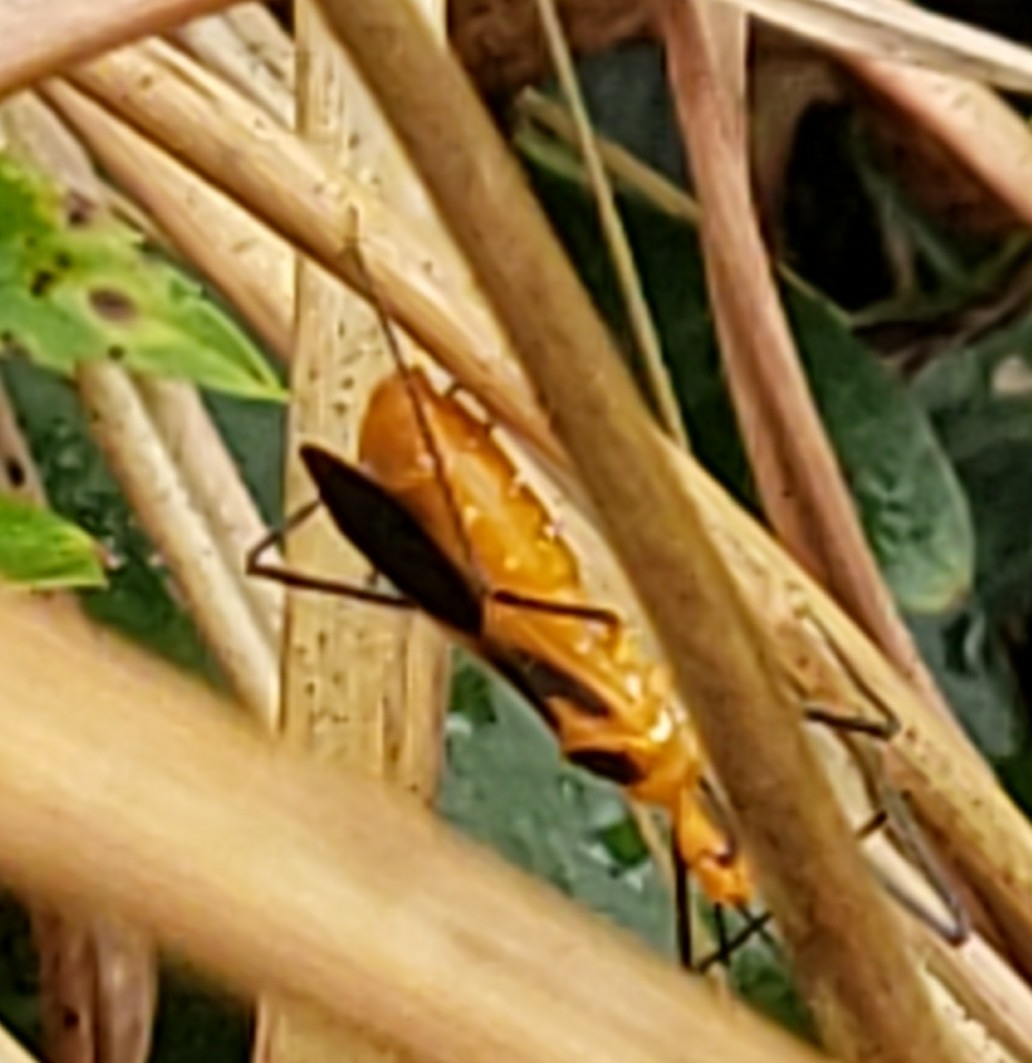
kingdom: Animalia
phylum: Arthropoda
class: Insecta
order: Hemiptera
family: Reduviidae
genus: Zelus
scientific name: Zelus longipes
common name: Milkweed assassin bug
